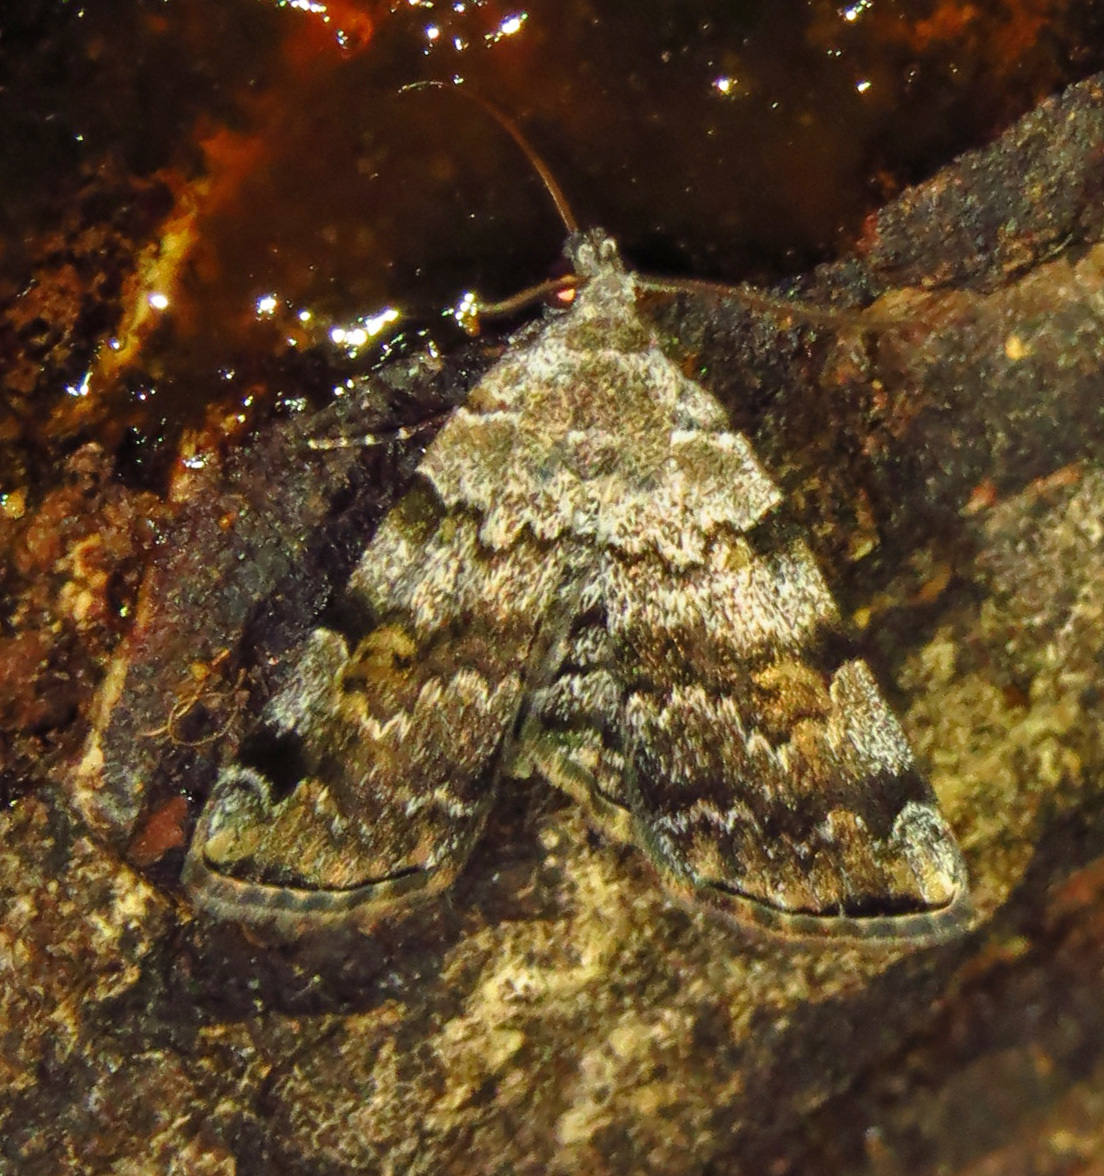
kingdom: Animalia
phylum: Arthropoda
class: Insecta
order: Lepidoptera
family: Erebidae
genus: Idia
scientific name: Idia americalis
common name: American idia moth
